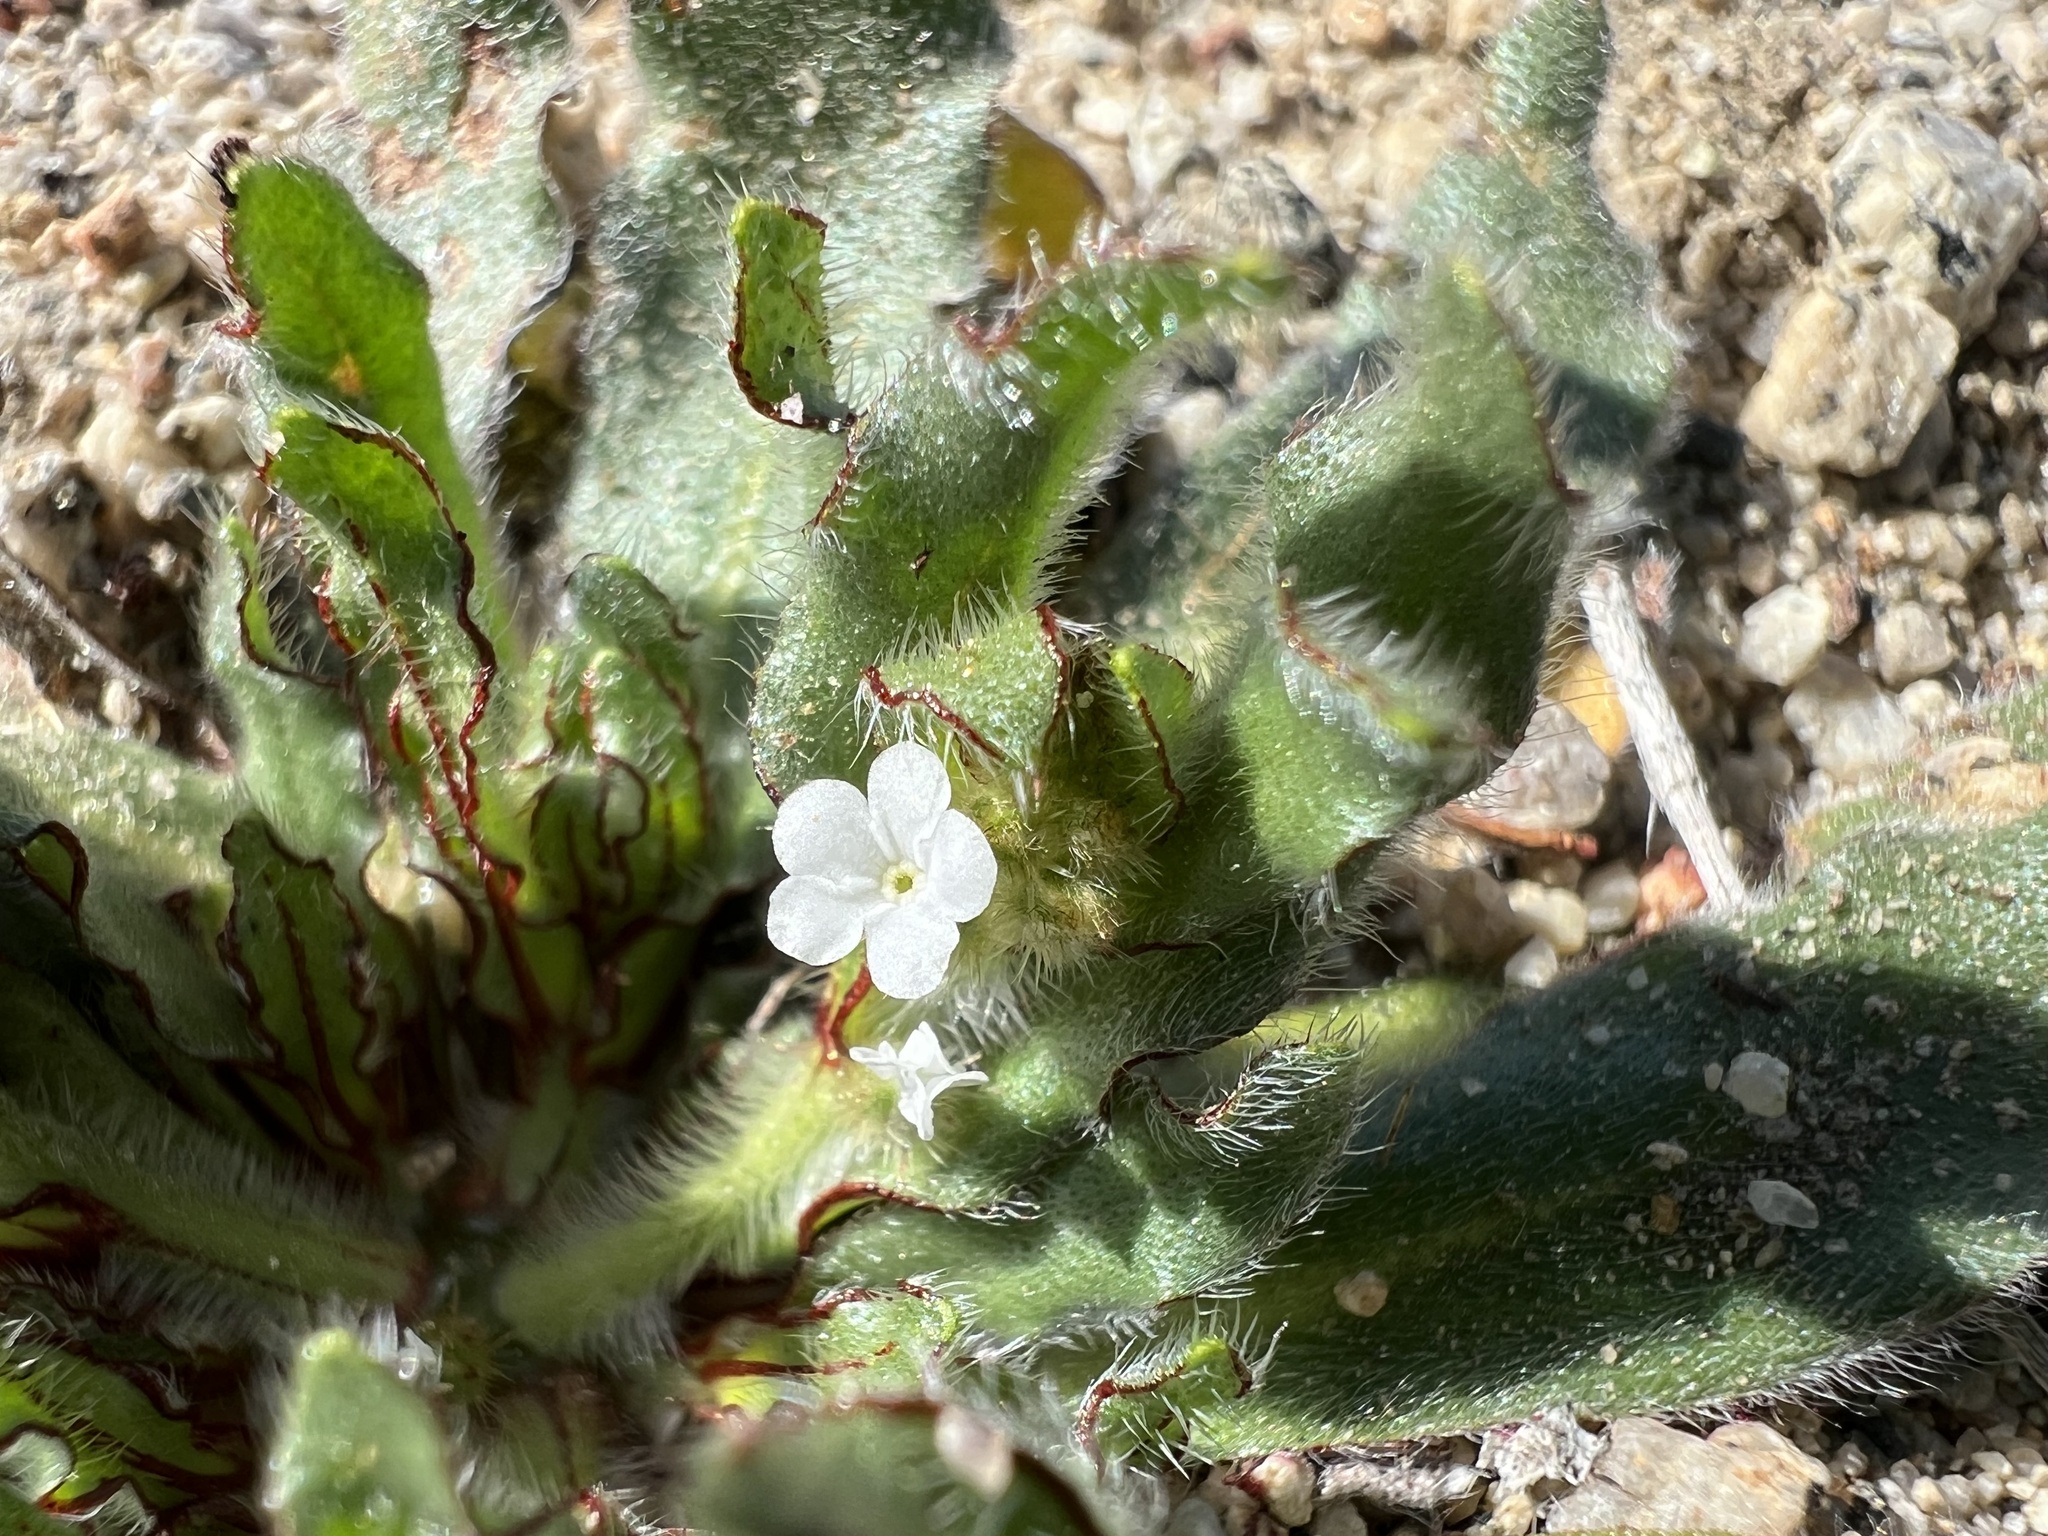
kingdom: Plantae
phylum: Tracheophyta
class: Magnoliopsida
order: Boraginales
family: Boraginaceae
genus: Plagiobothrys
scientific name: Plagiobothrys arizonicus
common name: Arizona popcorn-flower
